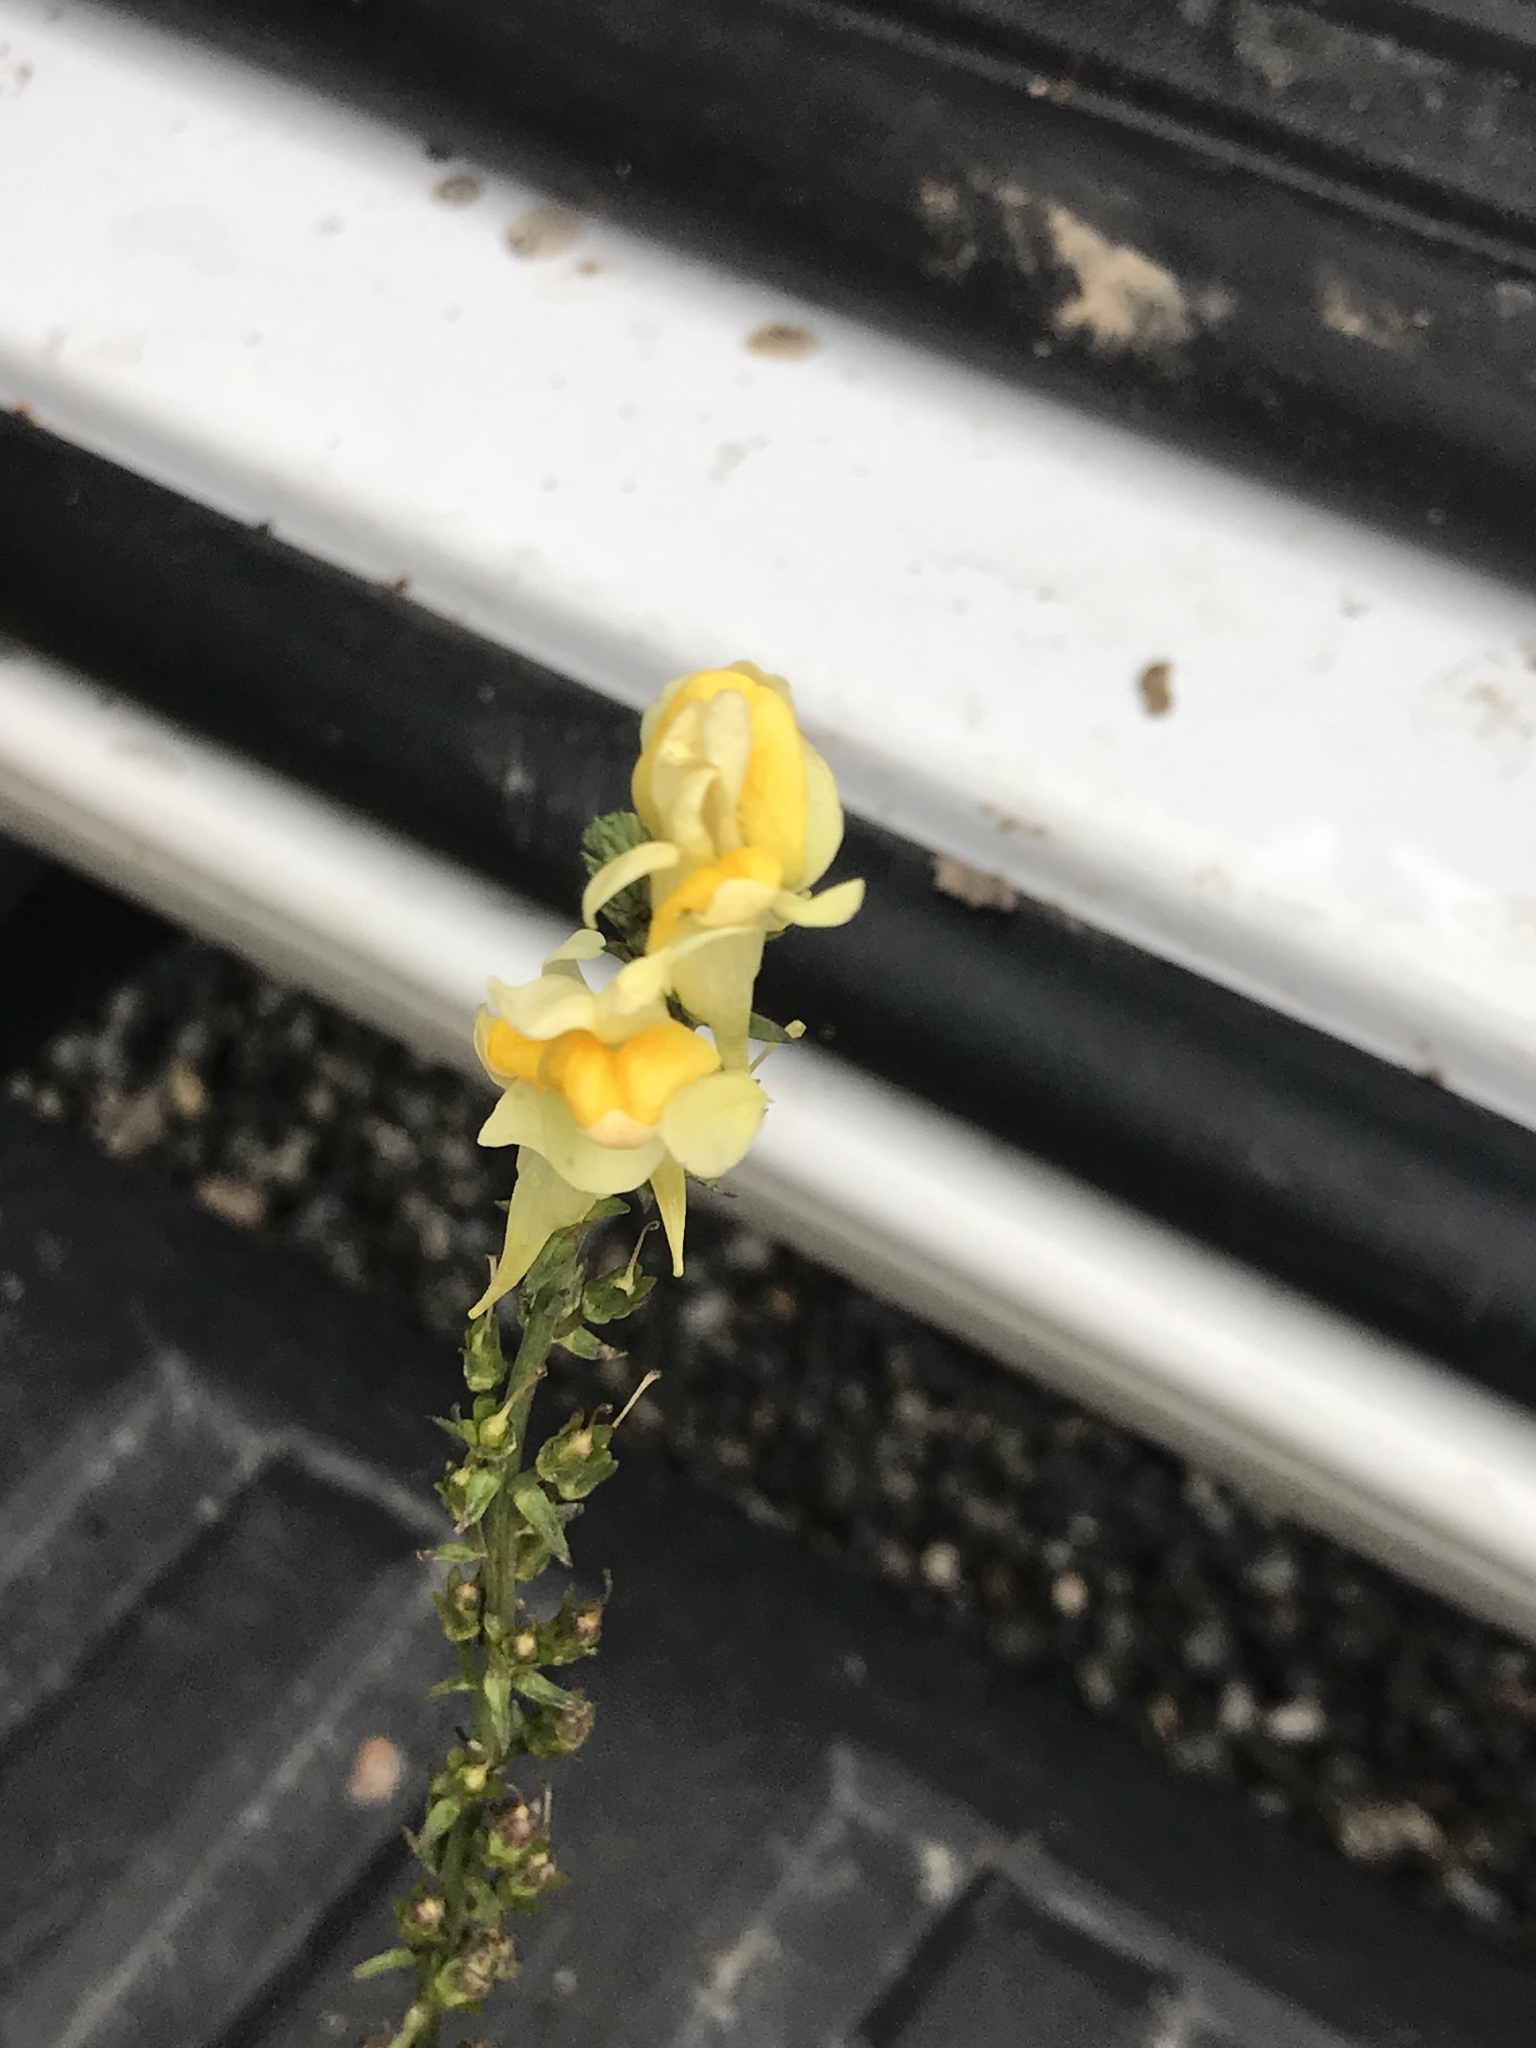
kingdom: Plantae
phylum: Tracheophyta
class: Magnoliopsida
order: Lamiales
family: Plantaginaceae
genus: Linaria
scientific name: Linaria vulgaris
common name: Butter and eggs
